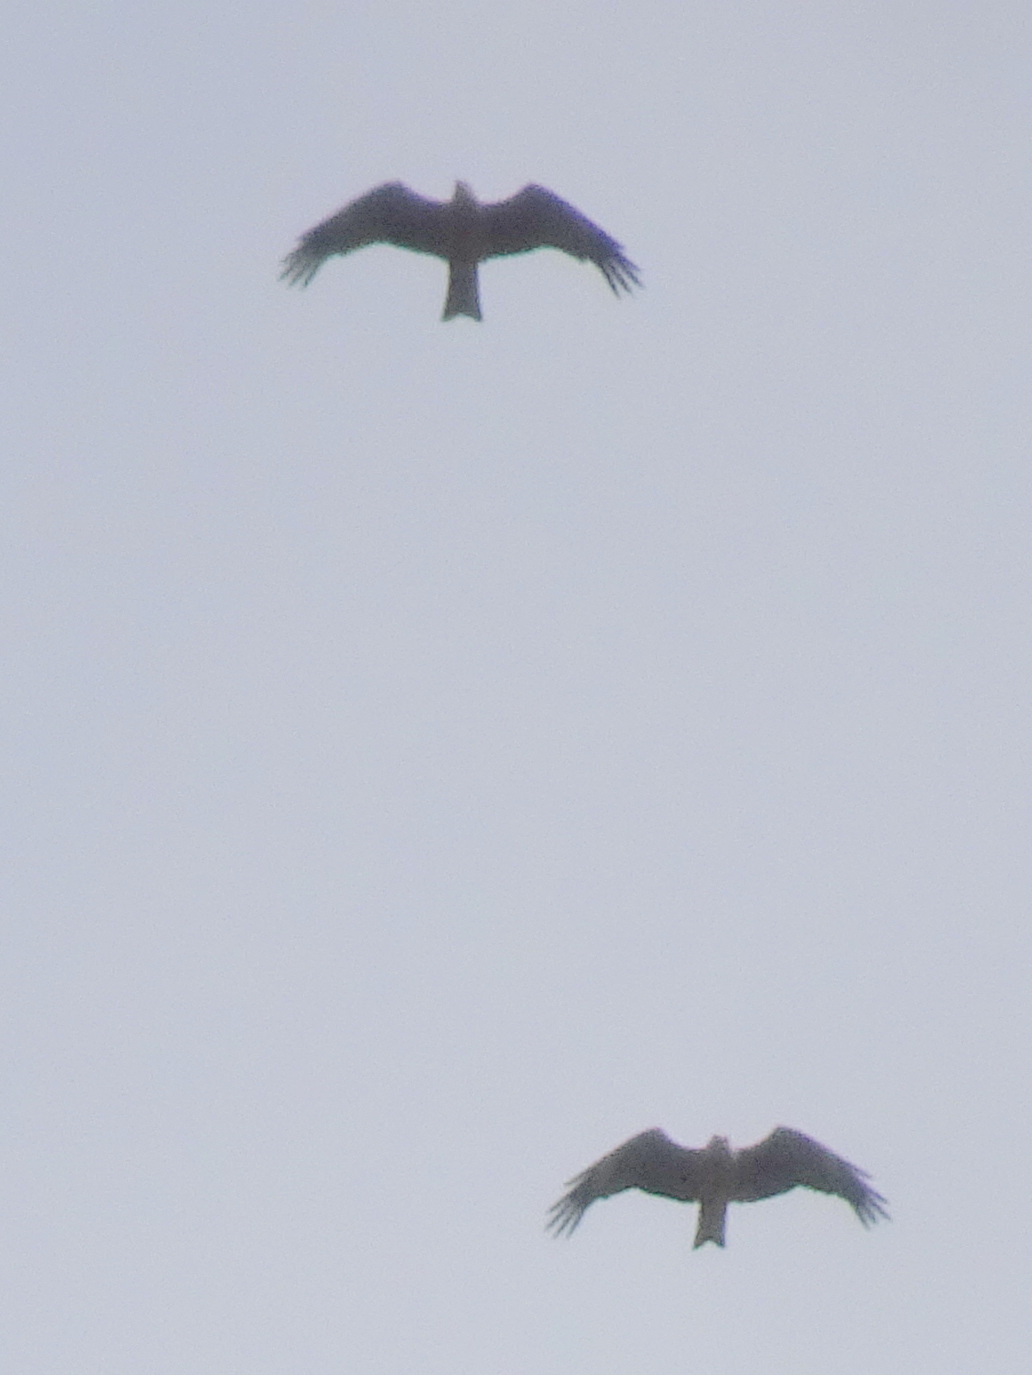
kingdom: Animalia
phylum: Chordata
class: Aves
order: Accipitriformes
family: Accipitridae
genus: Milvus
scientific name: Milvus migrans
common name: Black kite
